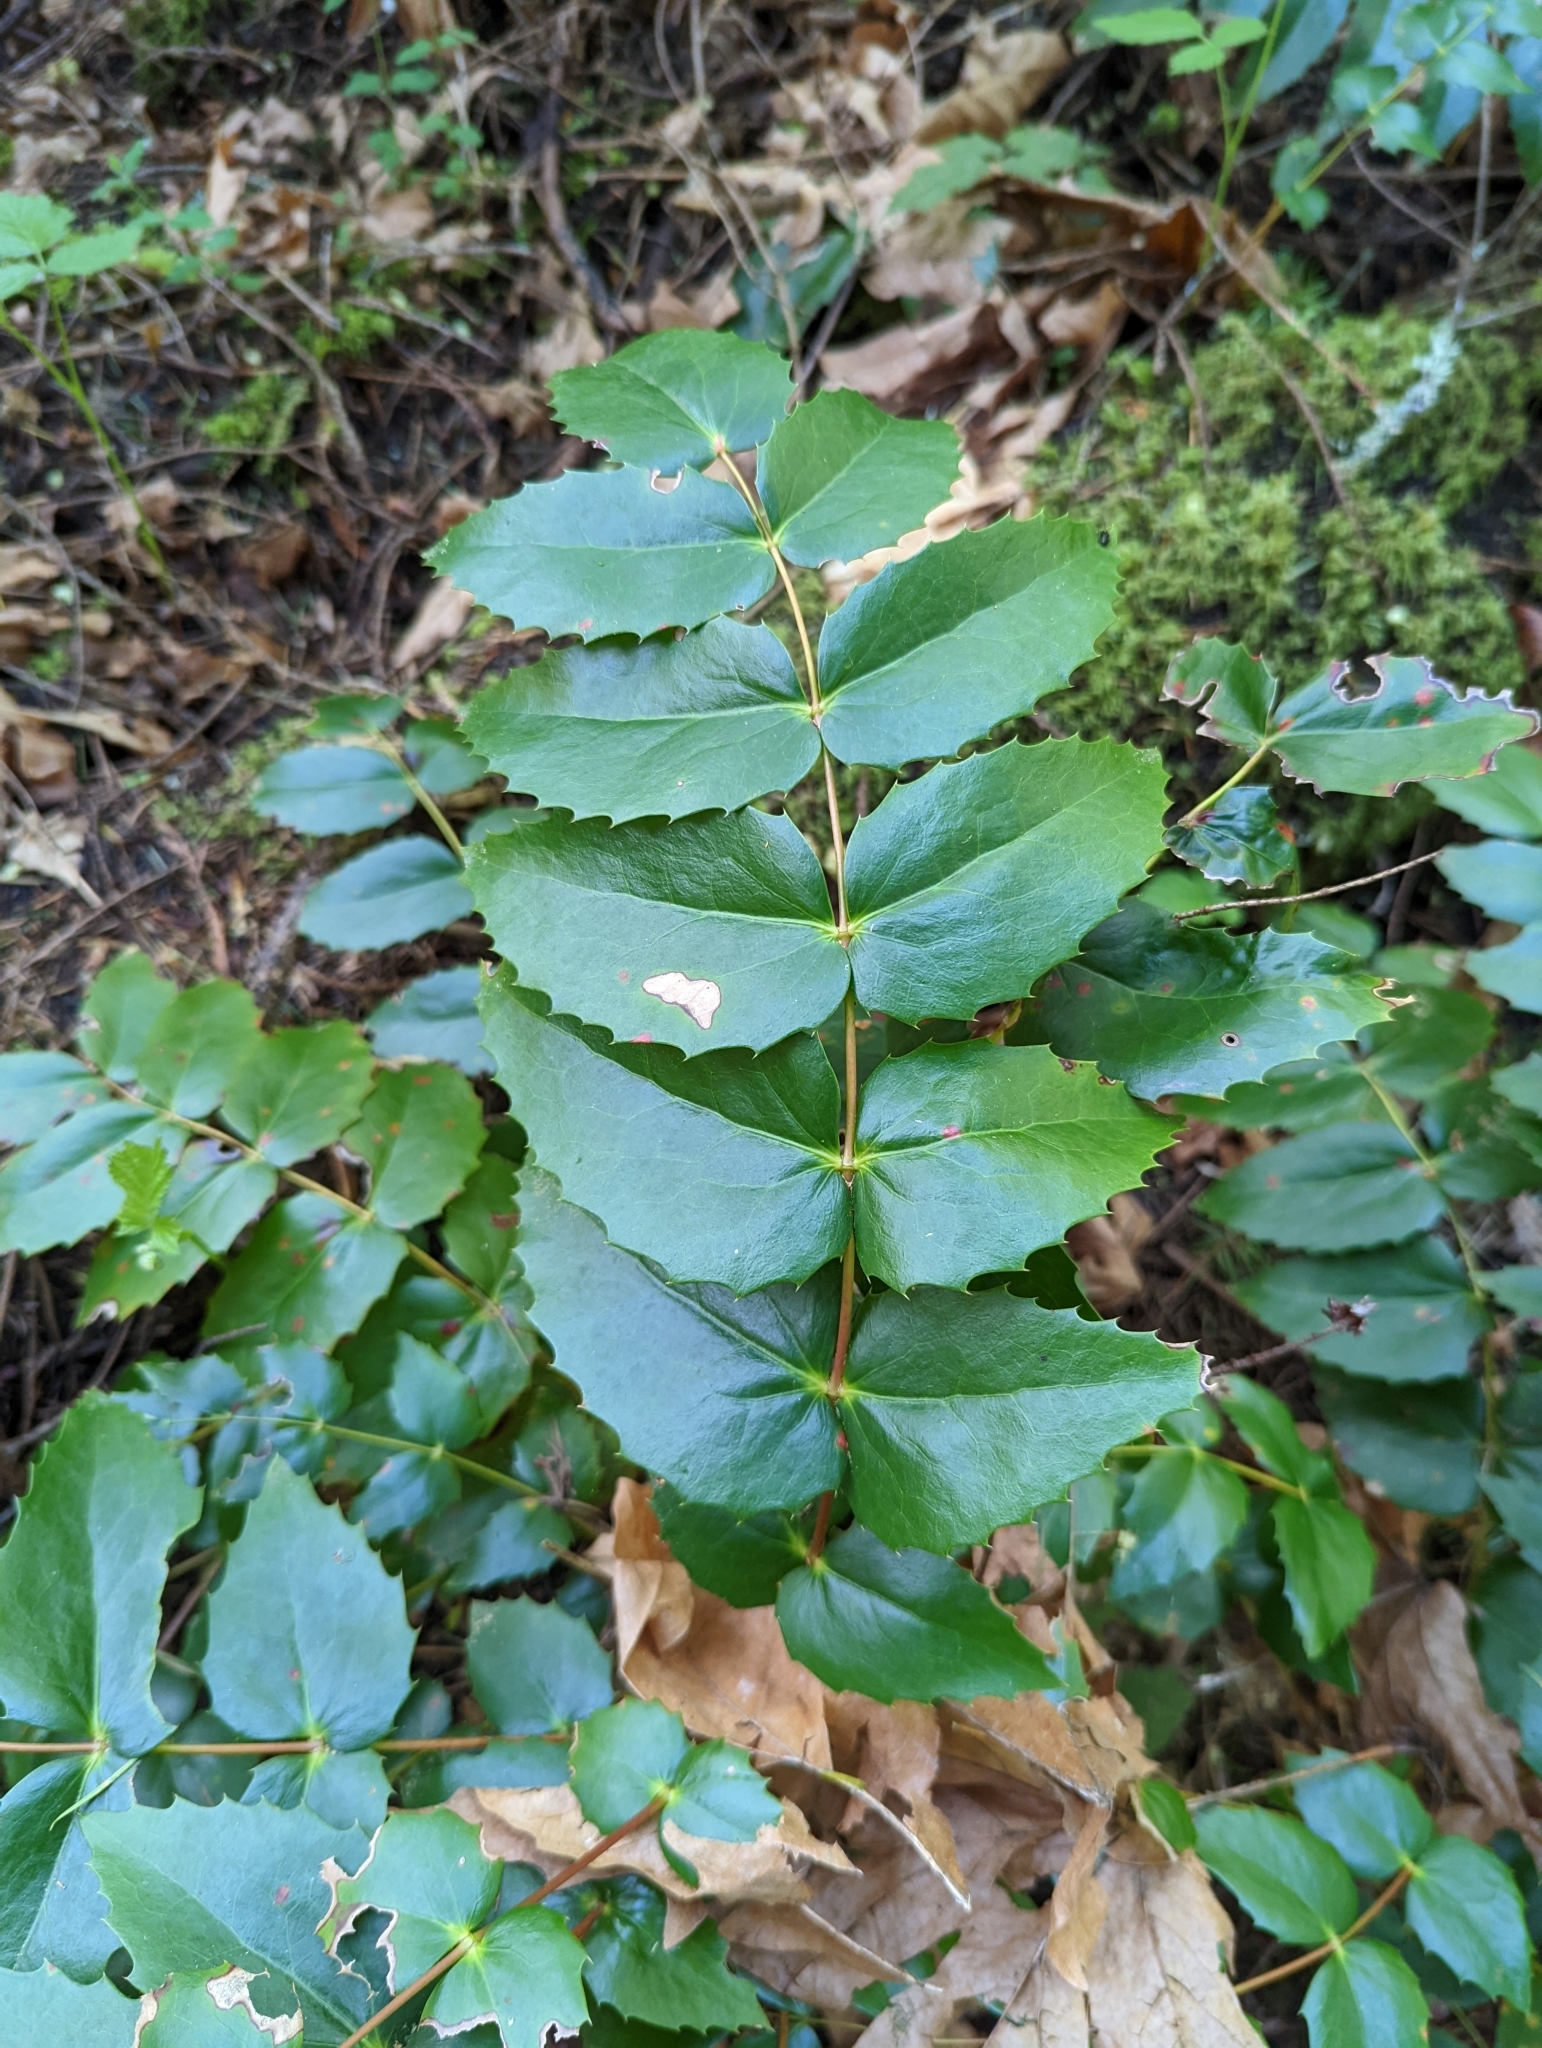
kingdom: Plantae
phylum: Tracheophyta
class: Magnoliopsida
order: Ranunculales
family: Berberidaceae
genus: Mahonia
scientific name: Mahonia nervosa
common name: Cascade oregon-grape
